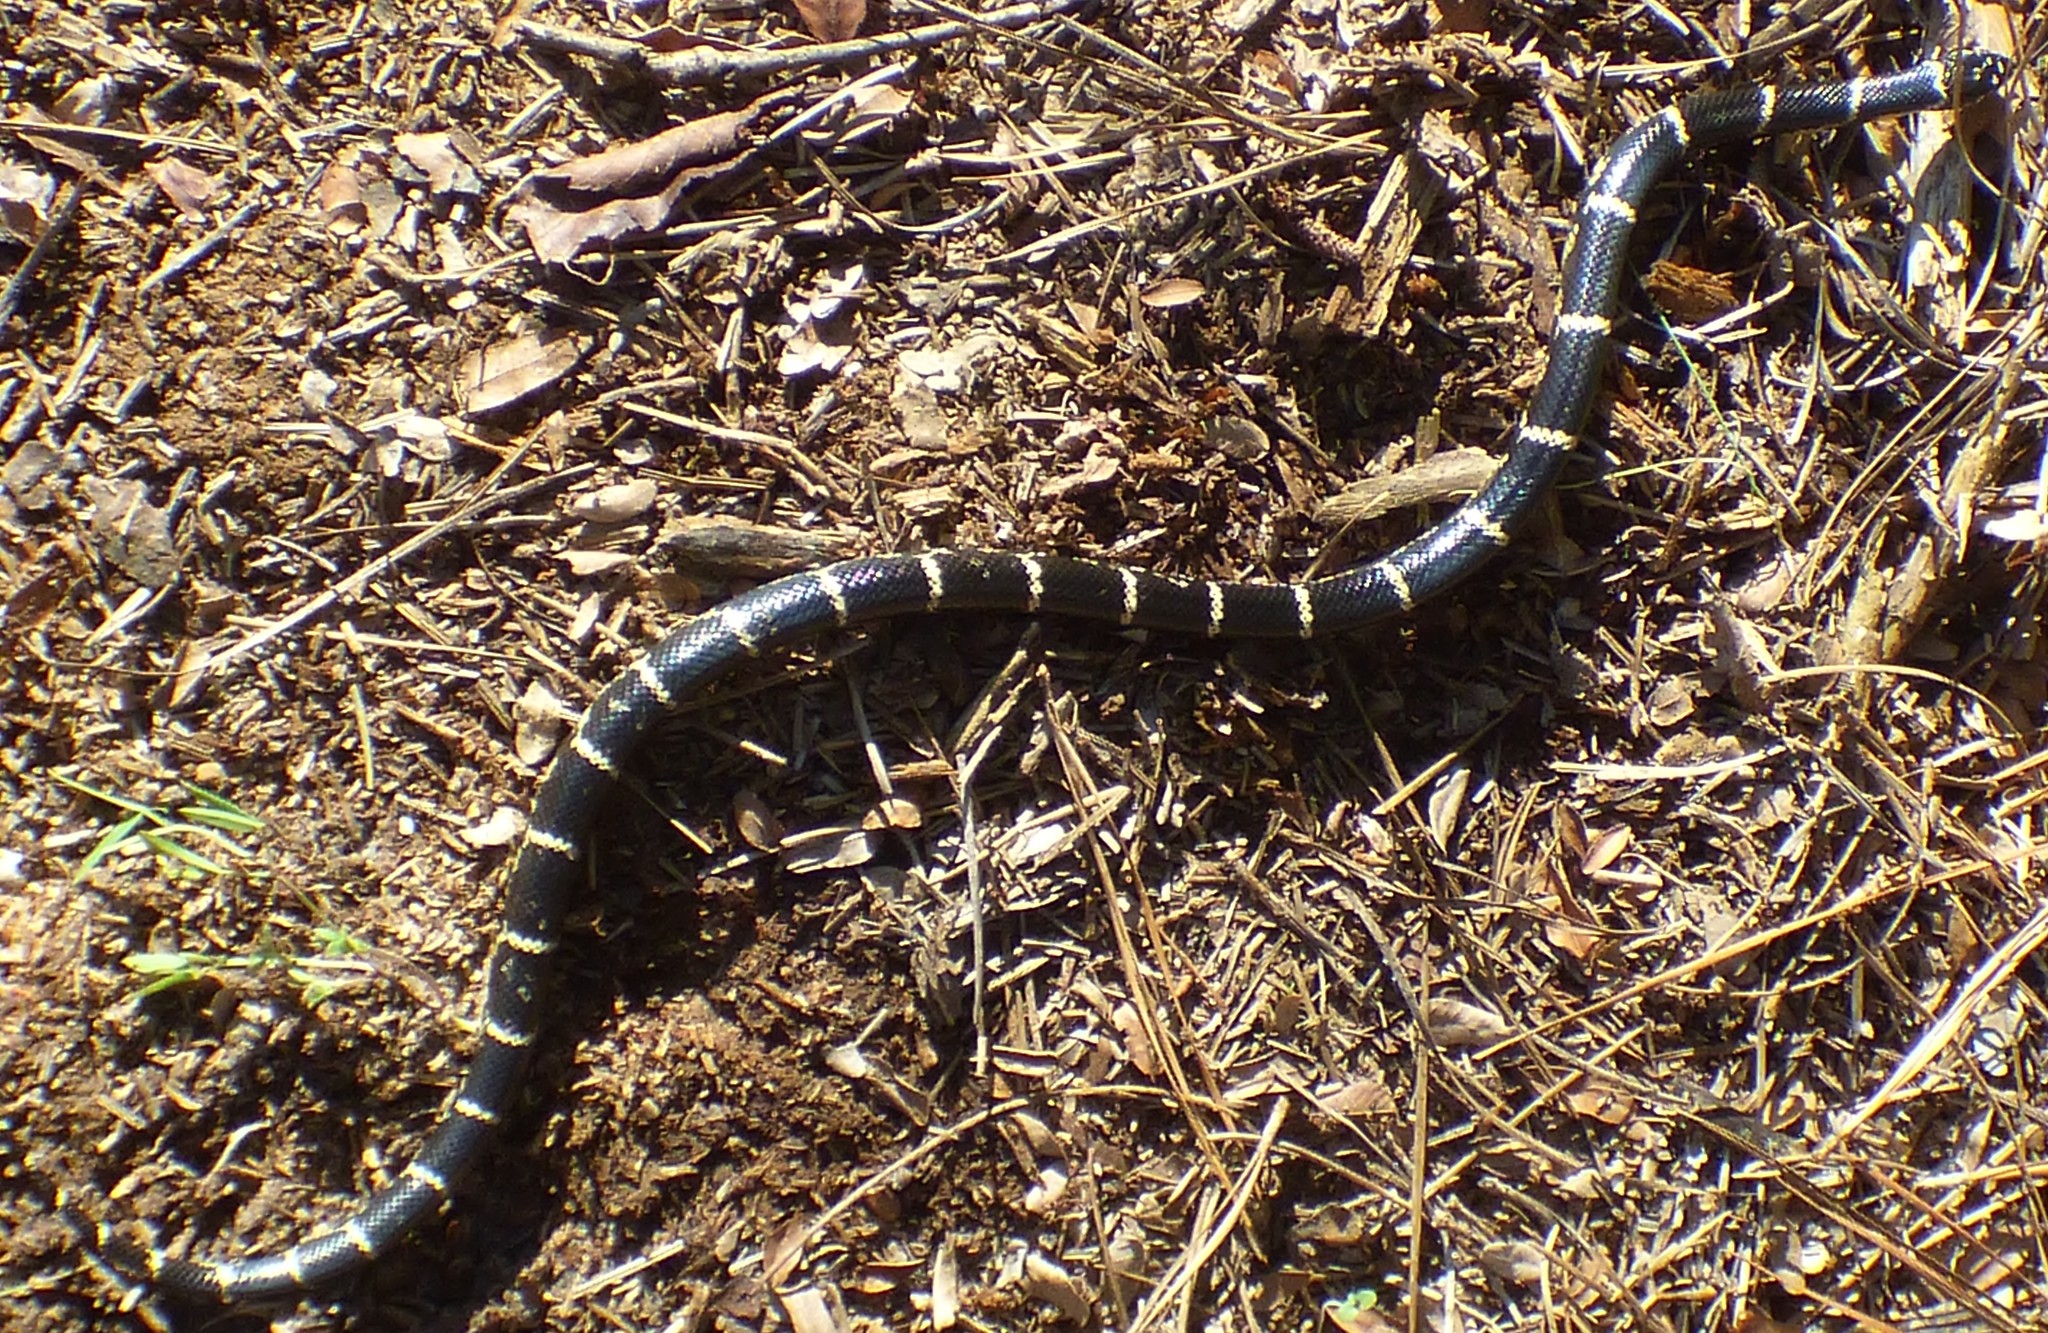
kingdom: Animalia
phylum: Chordata
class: Squamata
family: Colubridae
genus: Lampropeltis
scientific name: Lampropeltis getula
